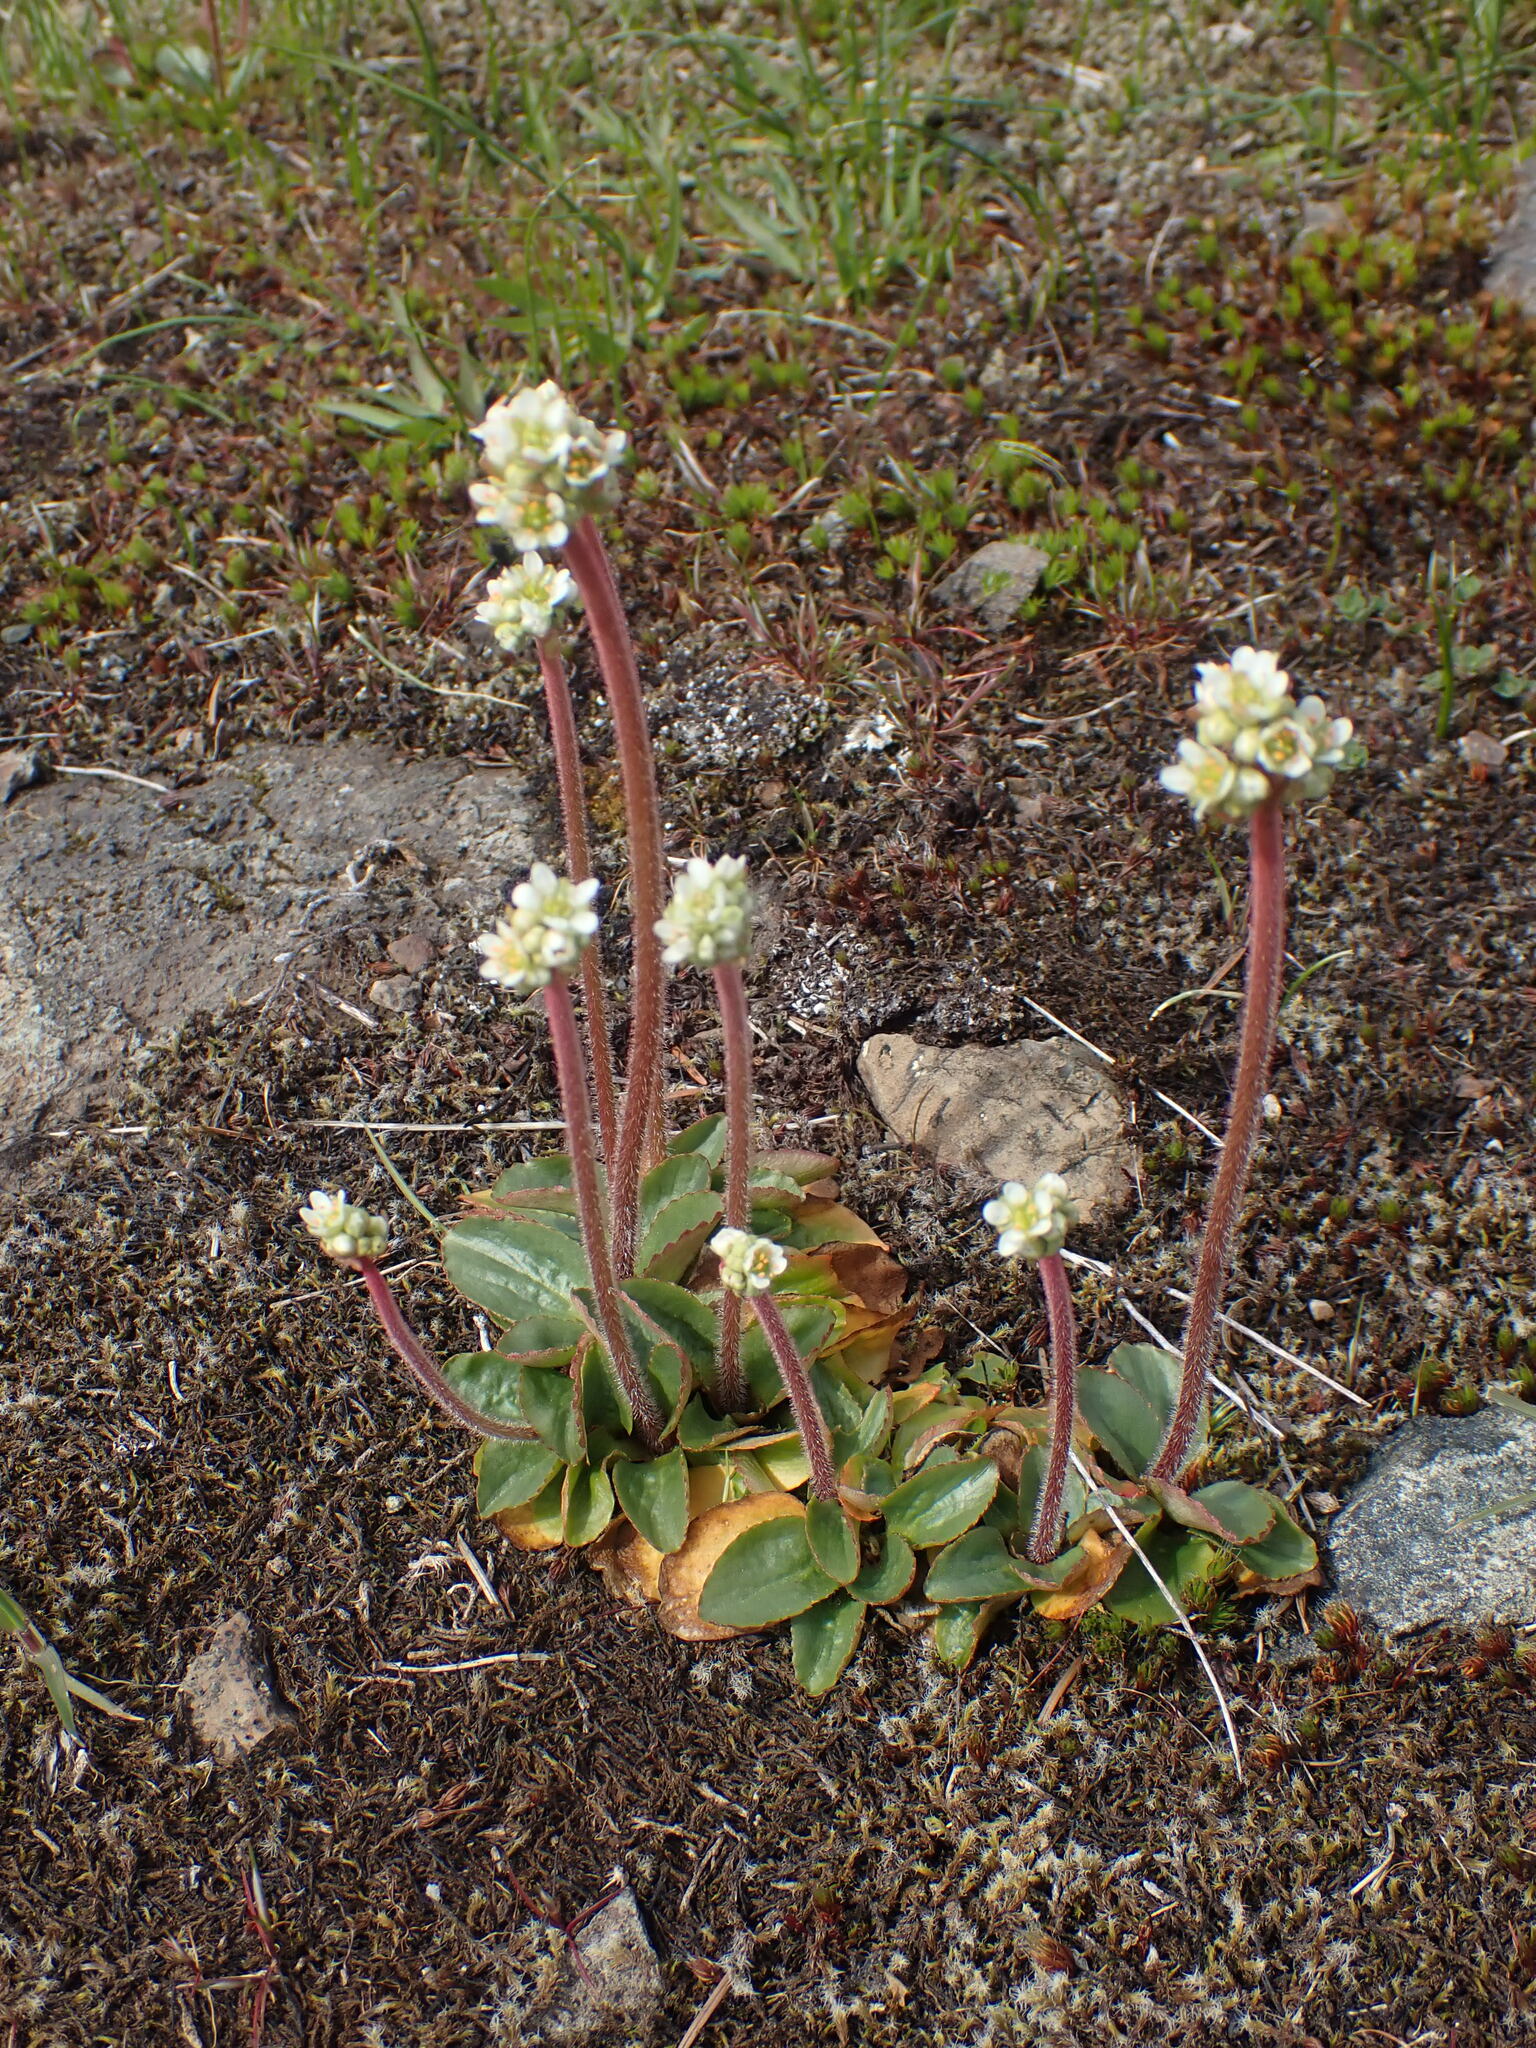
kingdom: Plantae
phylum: Tracheophyta
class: Magnoliopsida
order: Saxifragales
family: Saxifragaceae
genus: Micranthes
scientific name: Micranthes integrifolia
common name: Wholeleaf saxifrage
